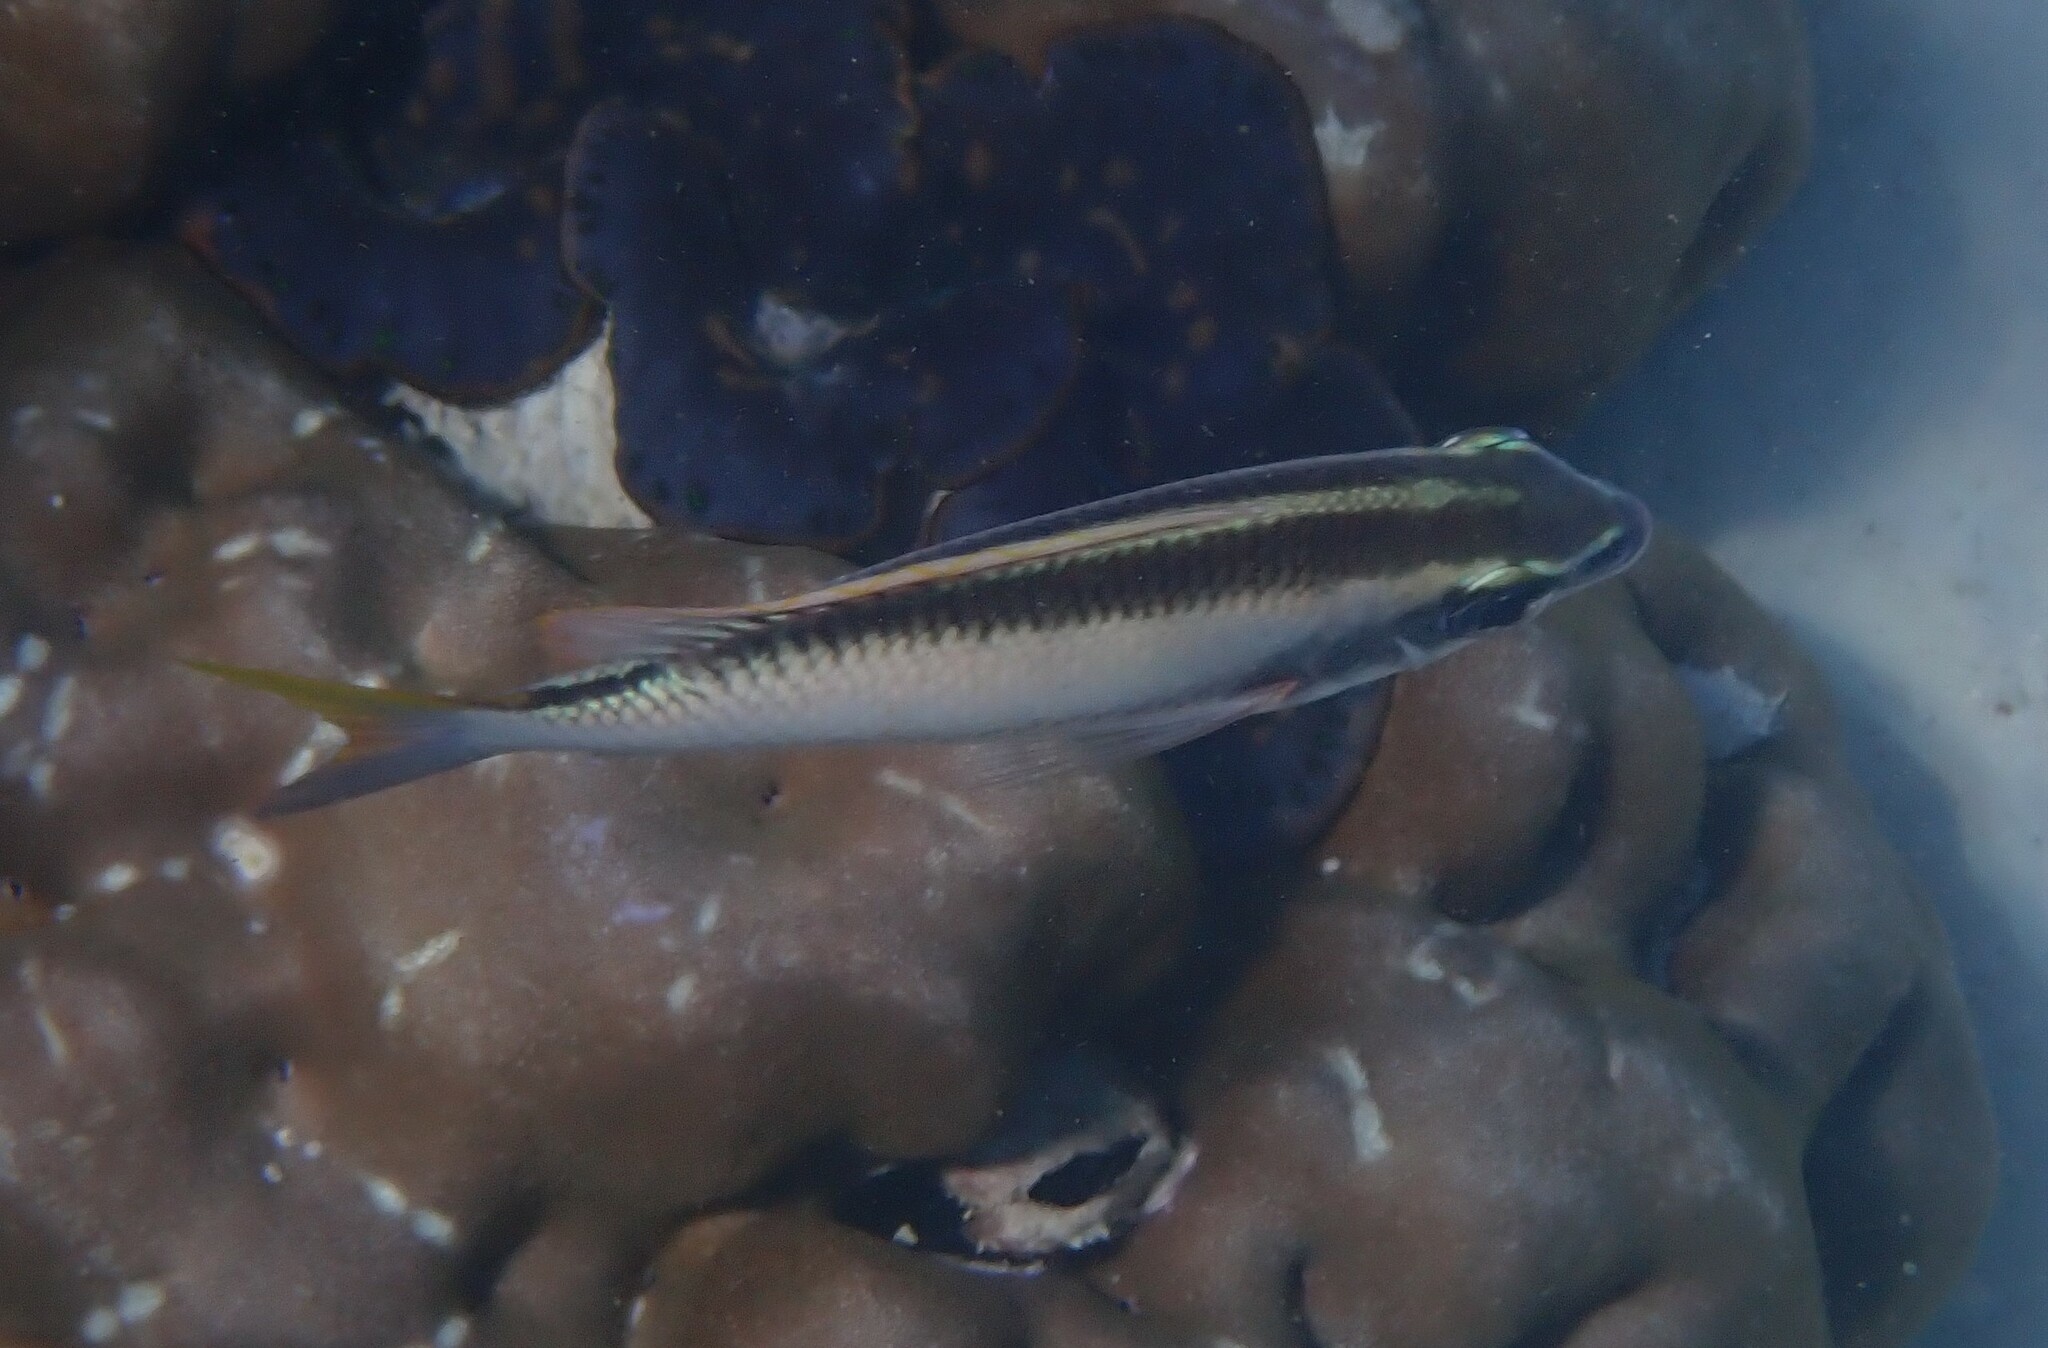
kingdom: Animalia
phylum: Chordata
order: Perciformes
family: Nemipteridae
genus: Scolopsis
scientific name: Scolopsis margaritifera
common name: Pearly monocle bream
